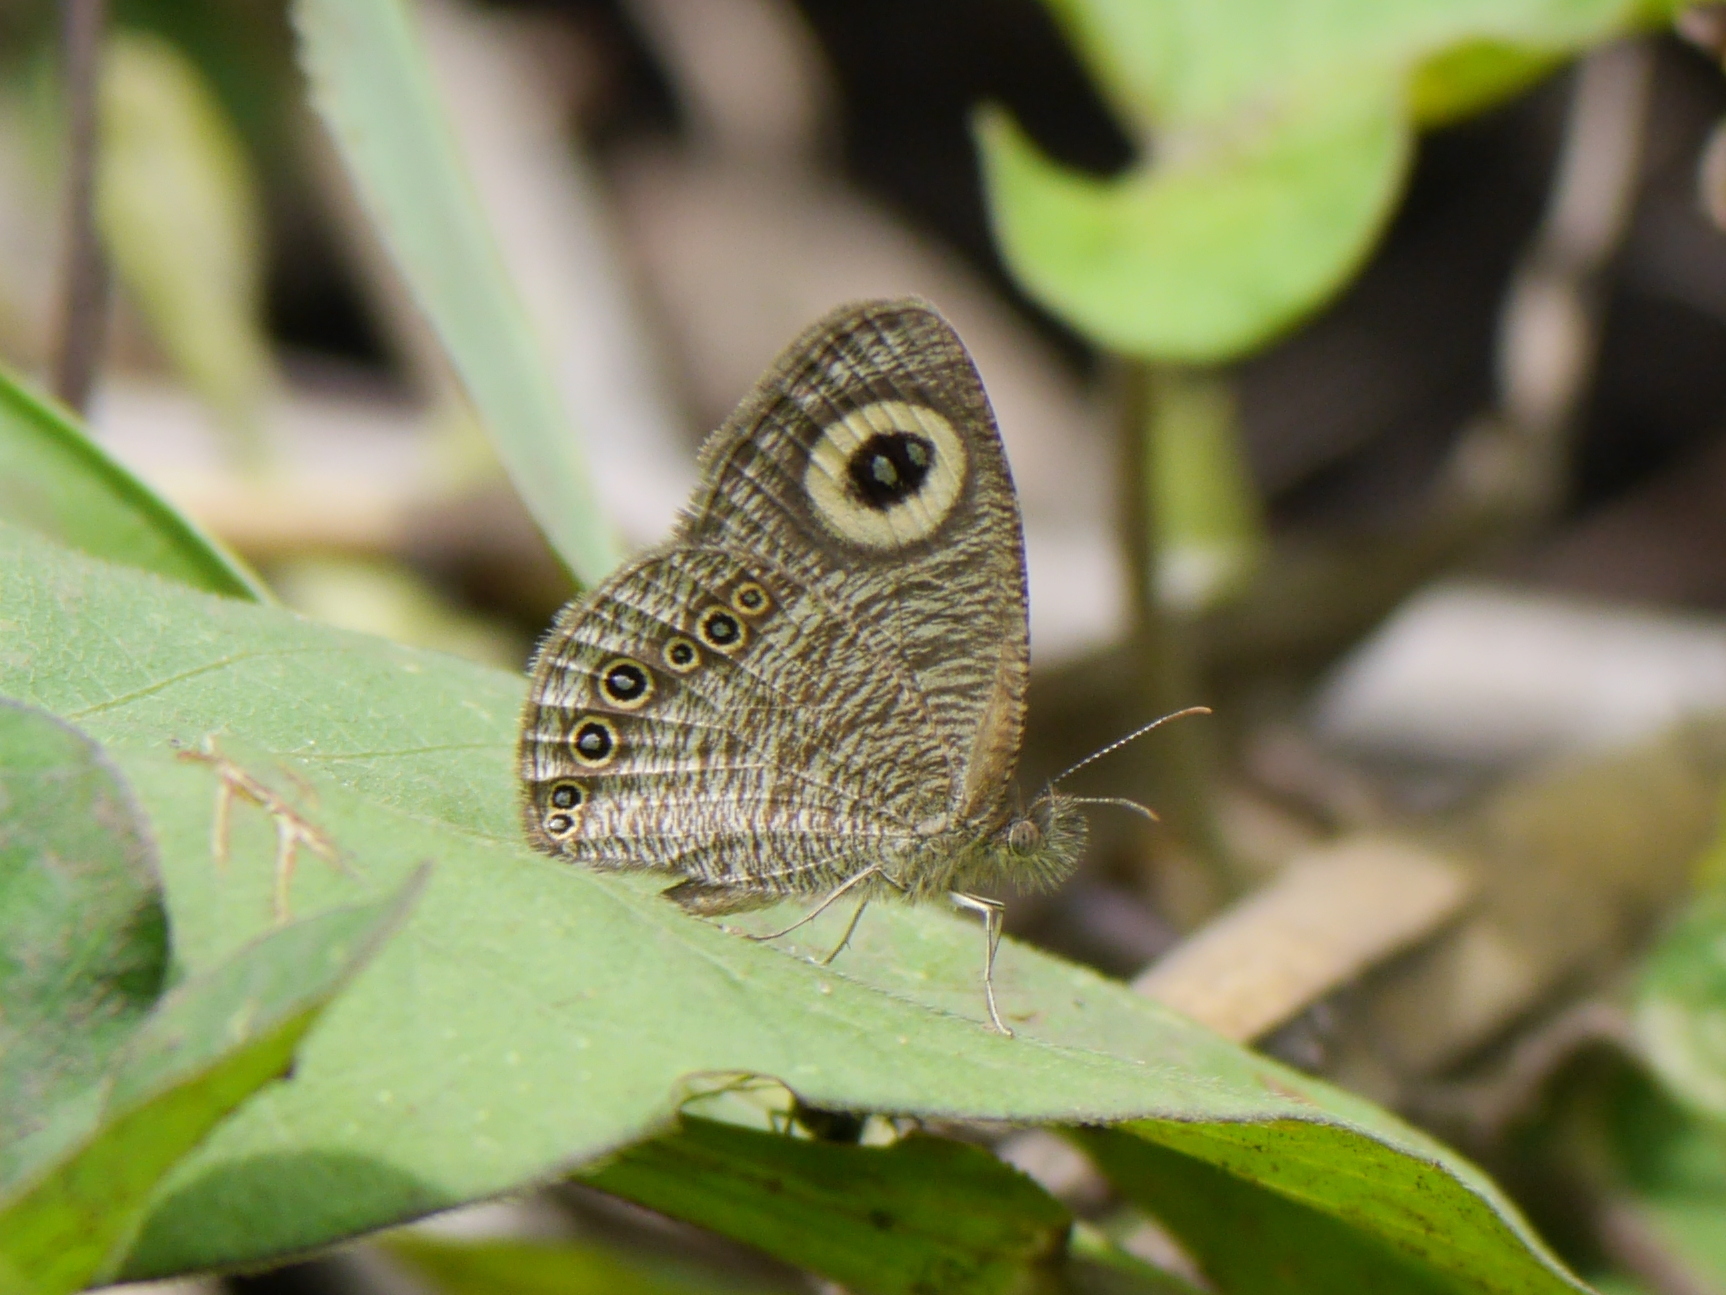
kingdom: Animalia
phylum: Arthropoda
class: Insecta
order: Lepidoptera
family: Nymphalidae
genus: Ypthimomorpha
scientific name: Ypthimomorpha itonia
